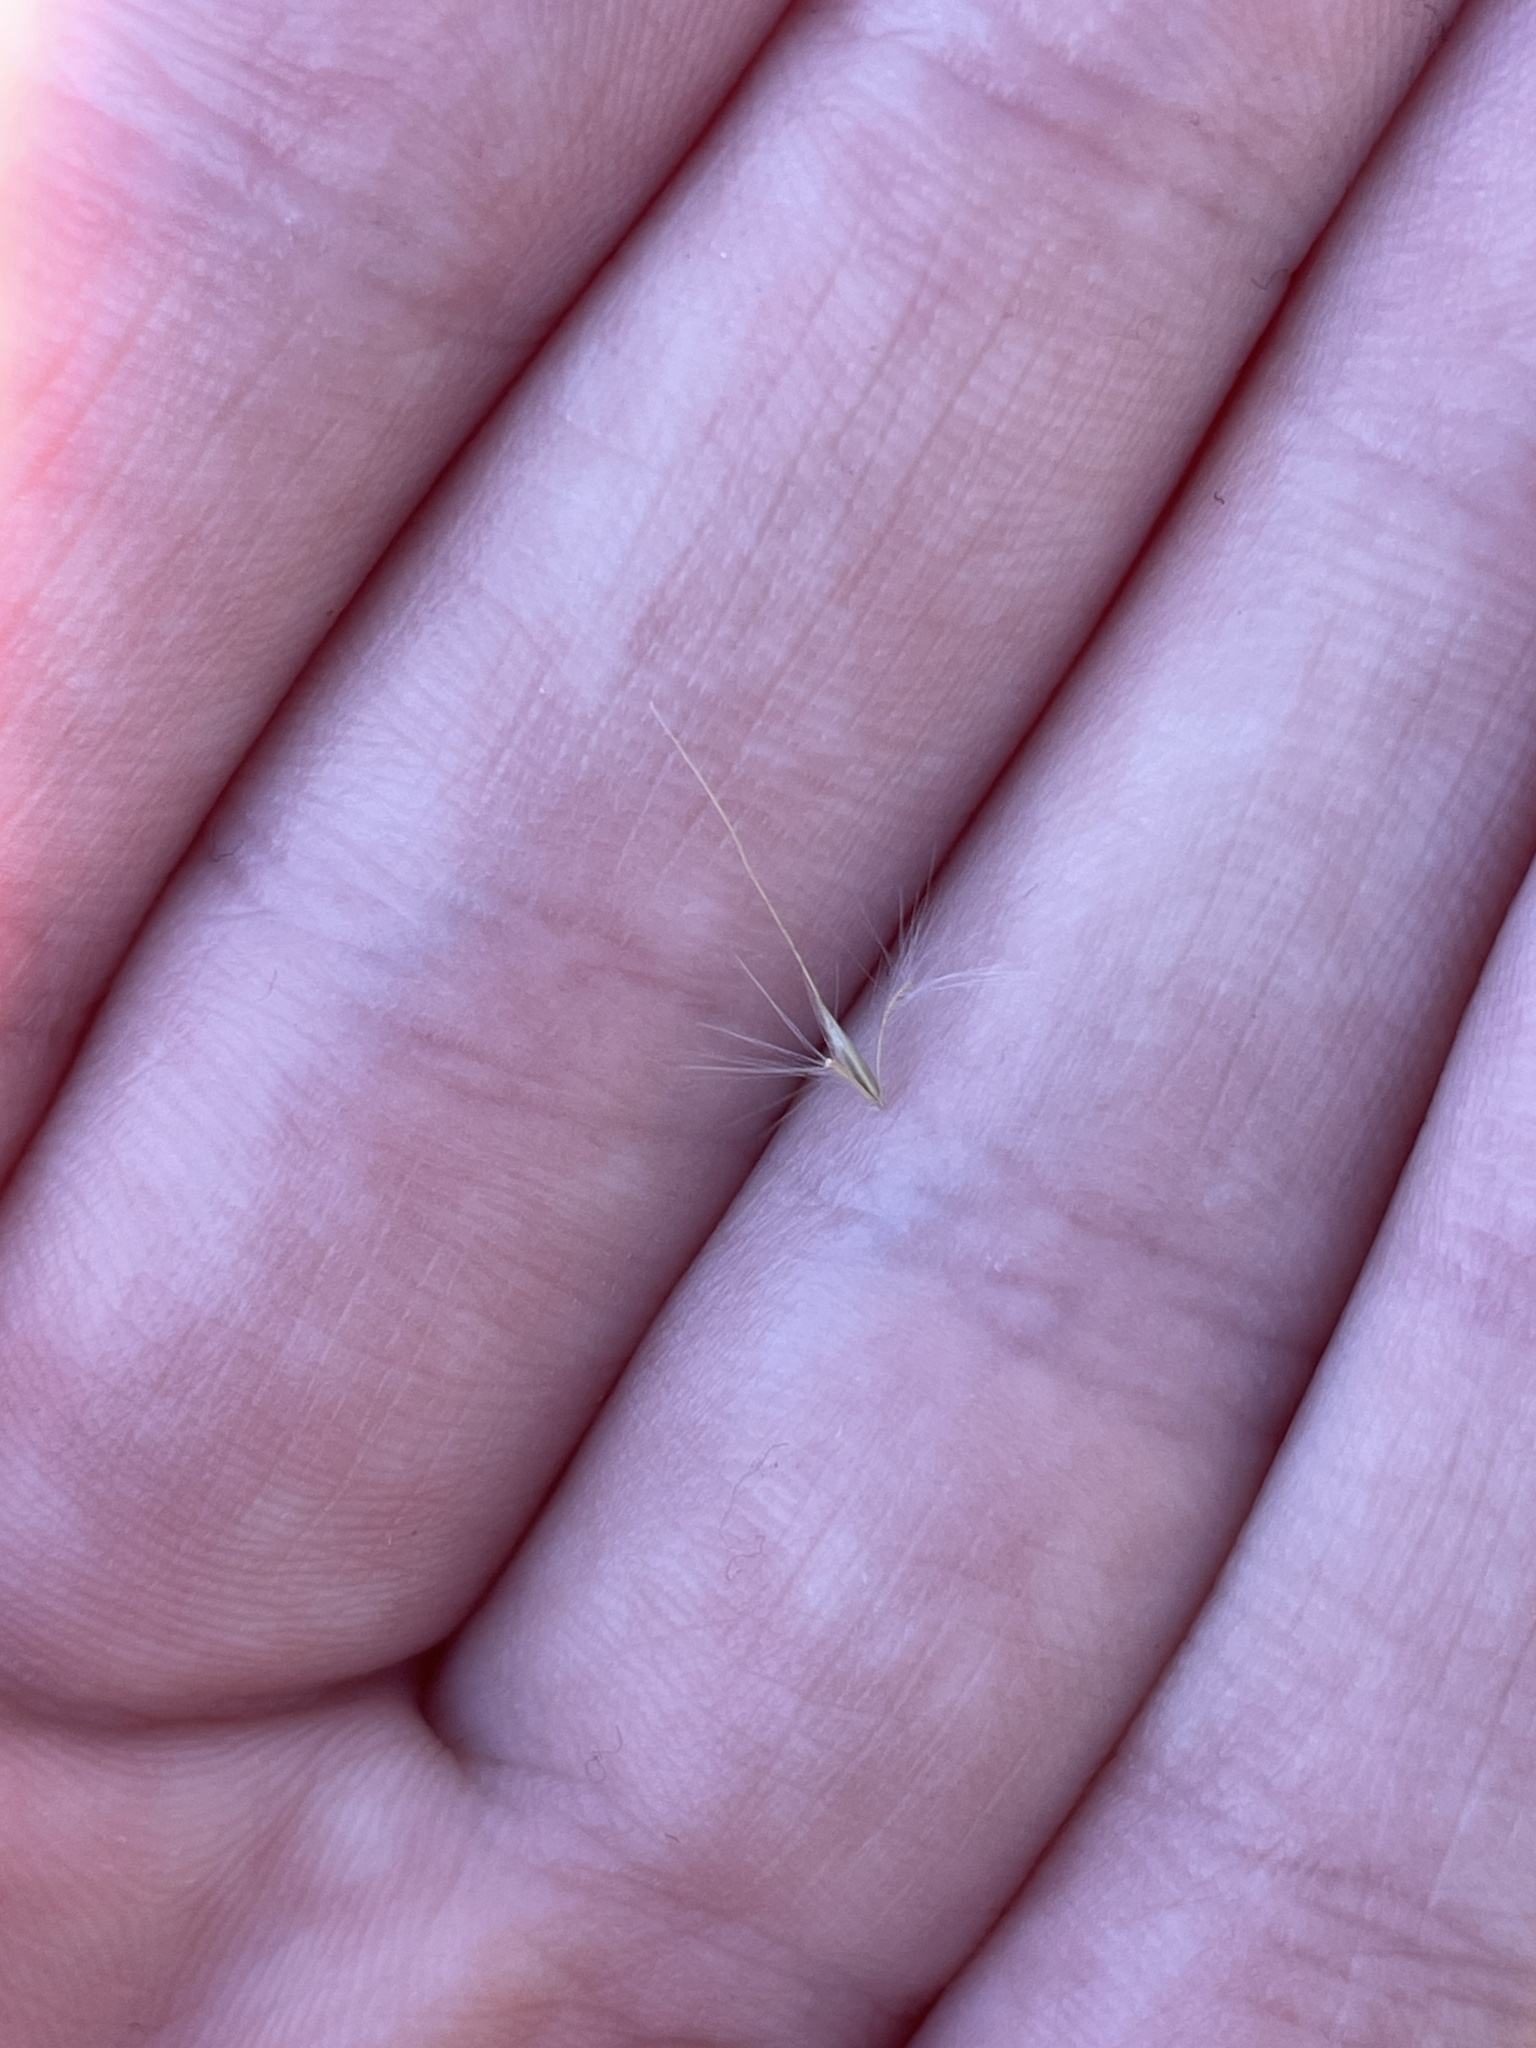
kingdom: Plantae
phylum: Tracheophyta
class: Liliopsida
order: Poales
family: Poaceae
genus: Andropogon
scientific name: Andropogon virginicus
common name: Broomsedge bluestem
